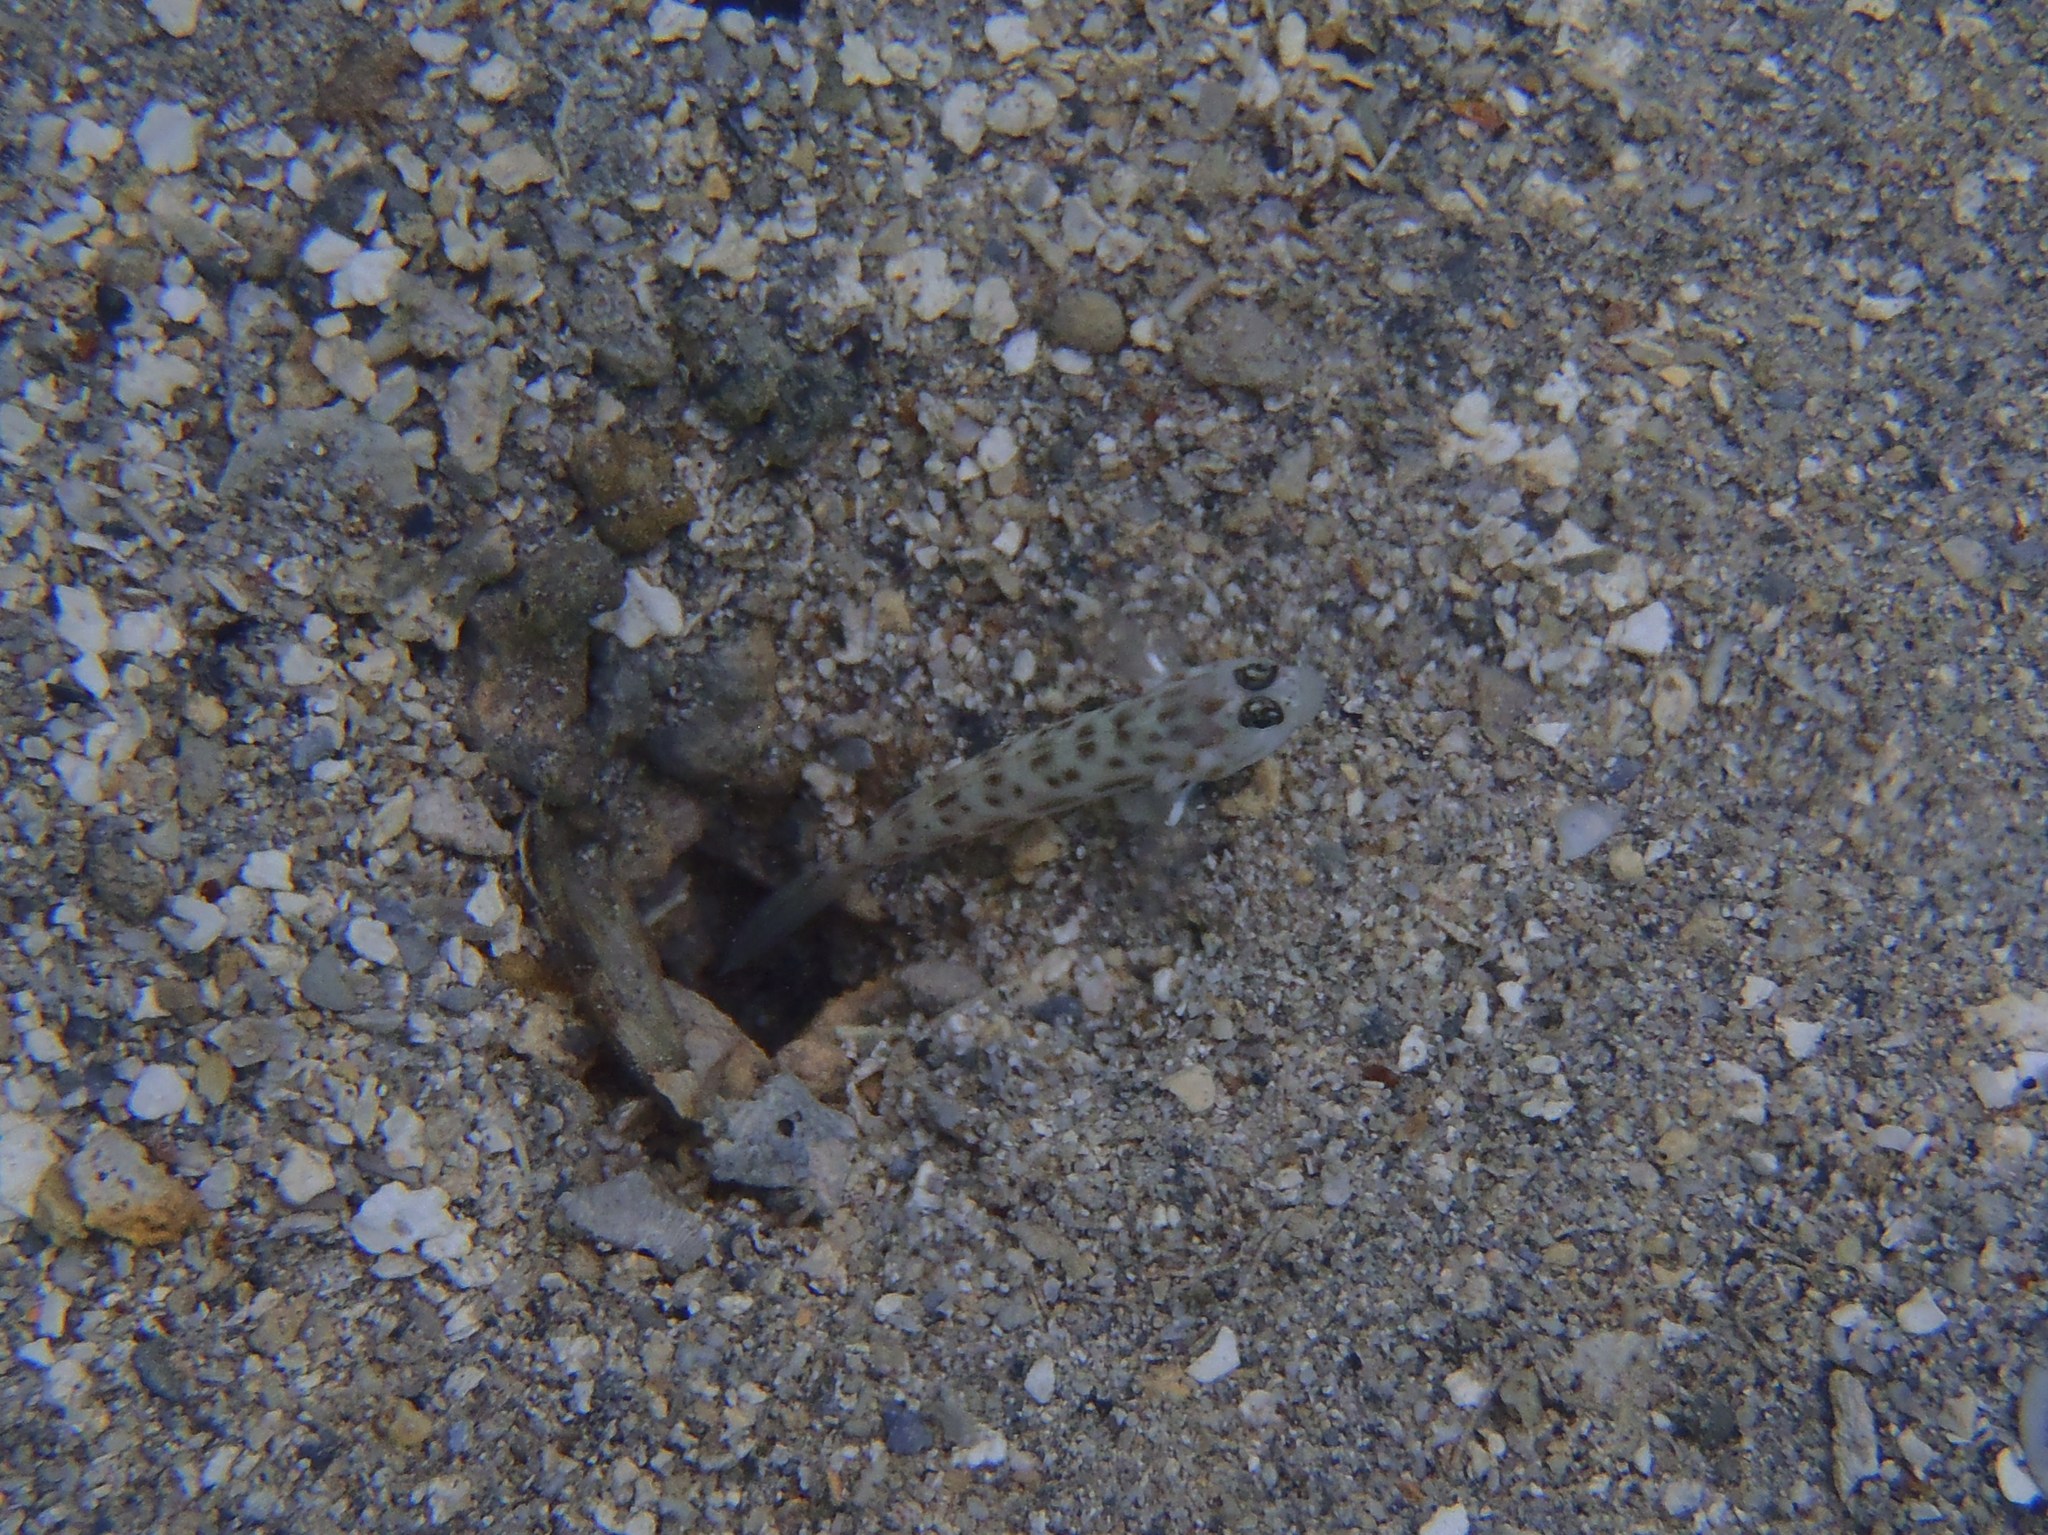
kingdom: Animalia
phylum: Chordata
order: Perciformes
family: Gobiidae
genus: Ctenogobiops
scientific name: Ctenogobiops feroculus
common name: Fierce shrimpgoby
